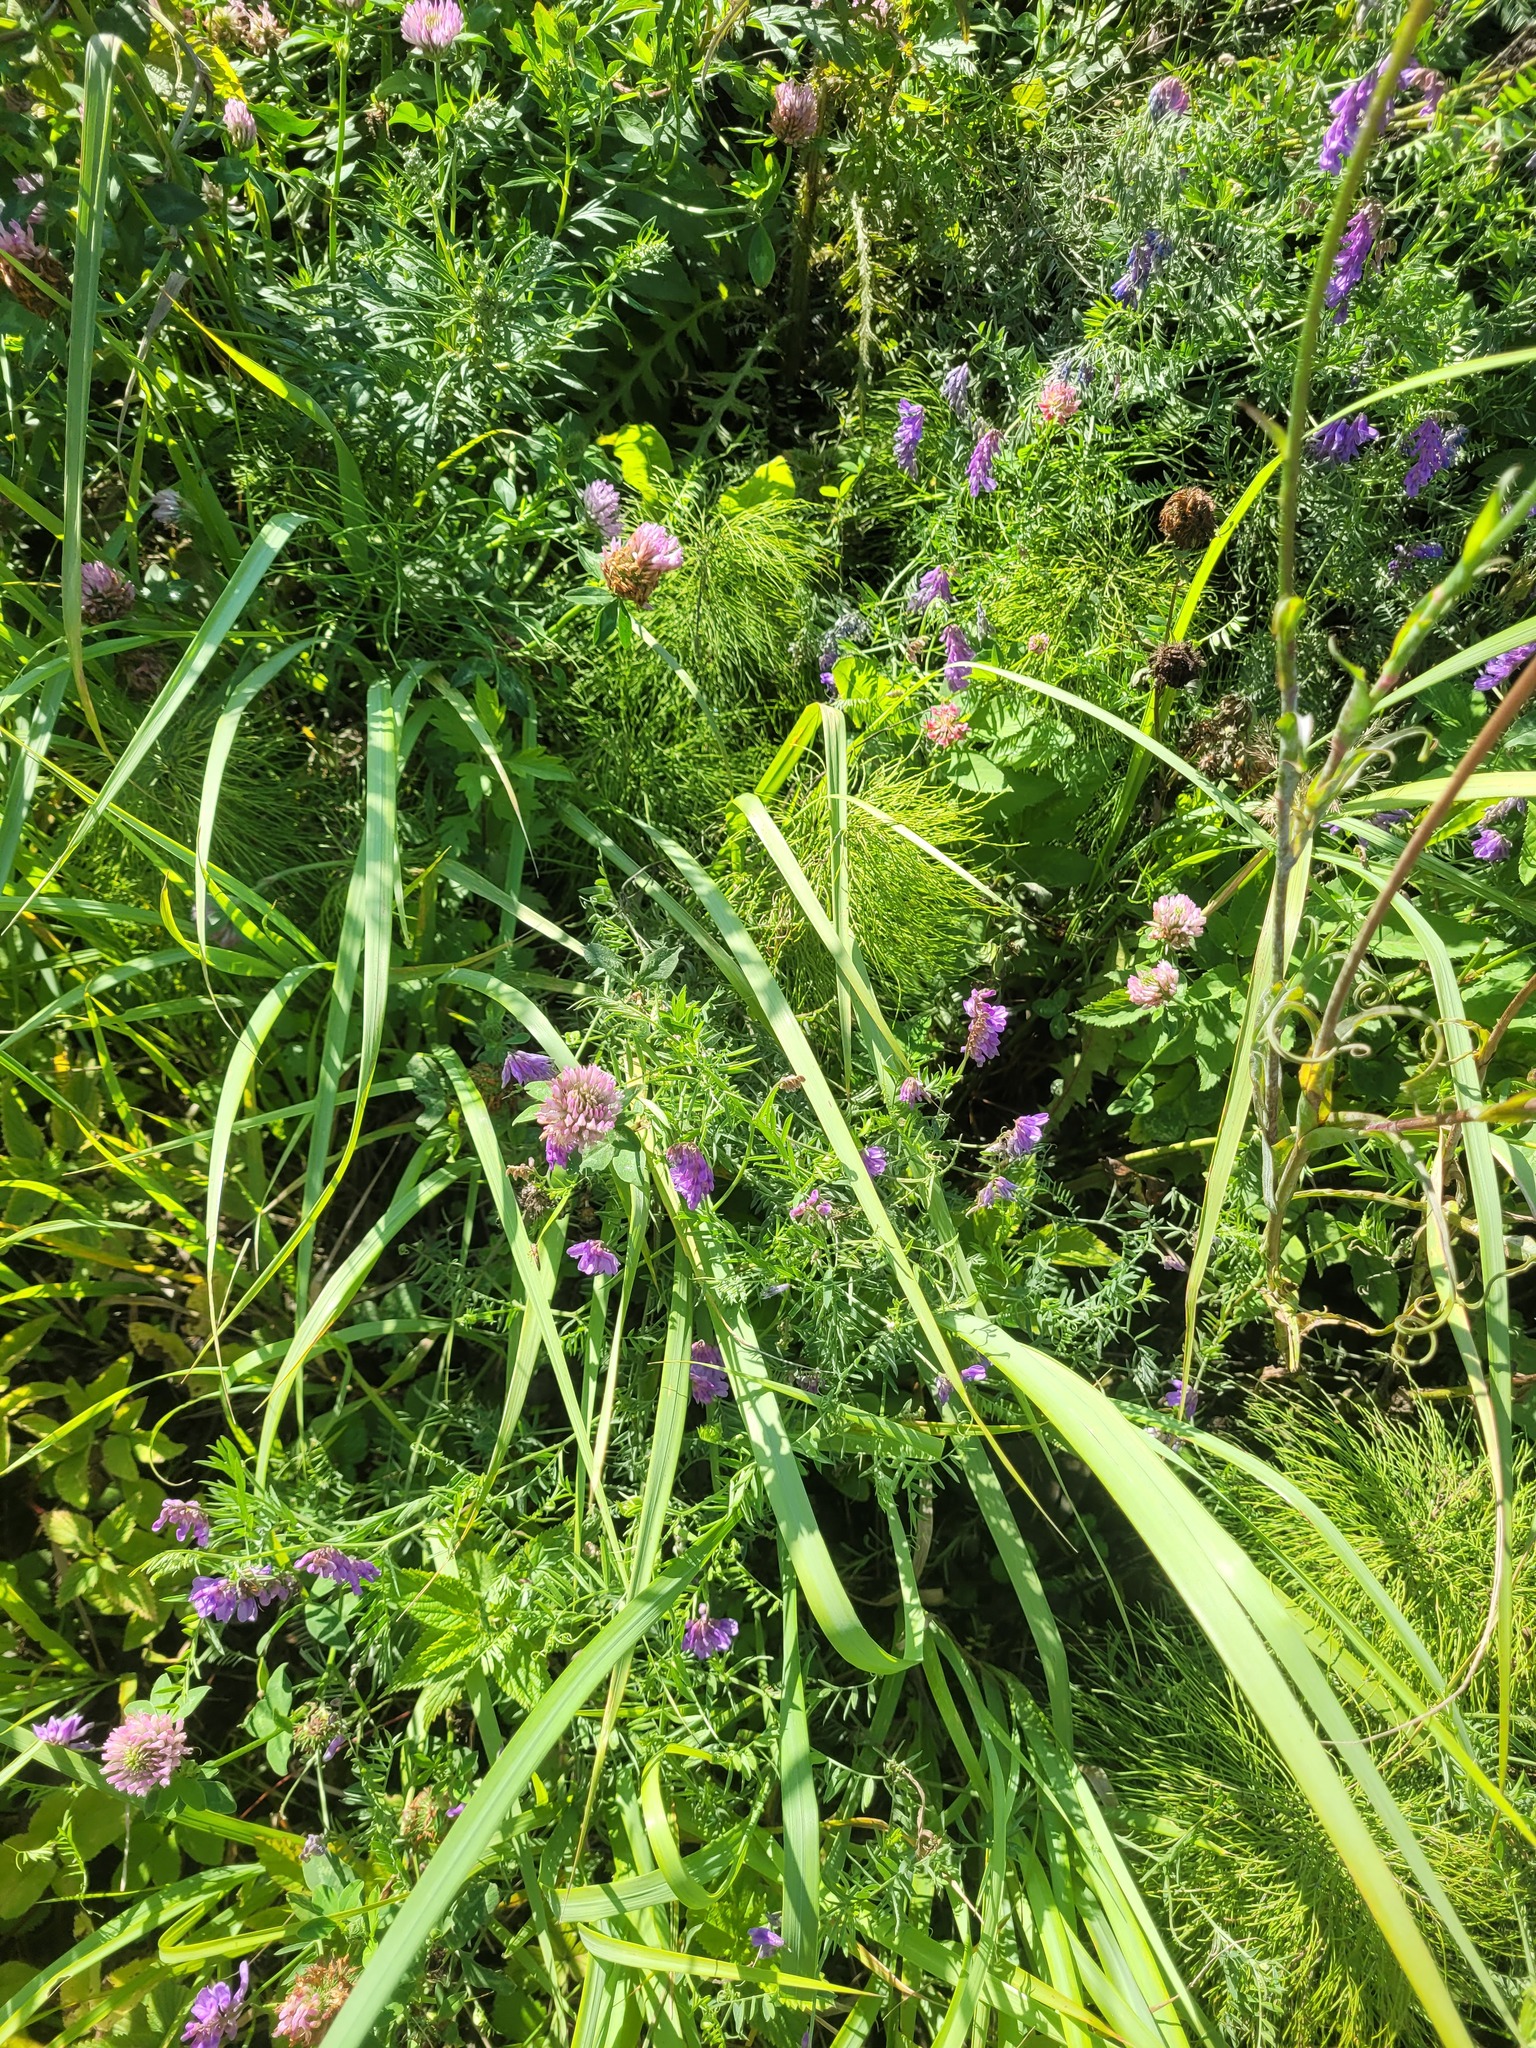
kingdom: Plantae
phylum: Tracheophyta
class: Magnoliopsida
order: Fabales
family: Fabaceae
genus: Trifolium
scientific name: Trifolium pratense
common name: Red clover
